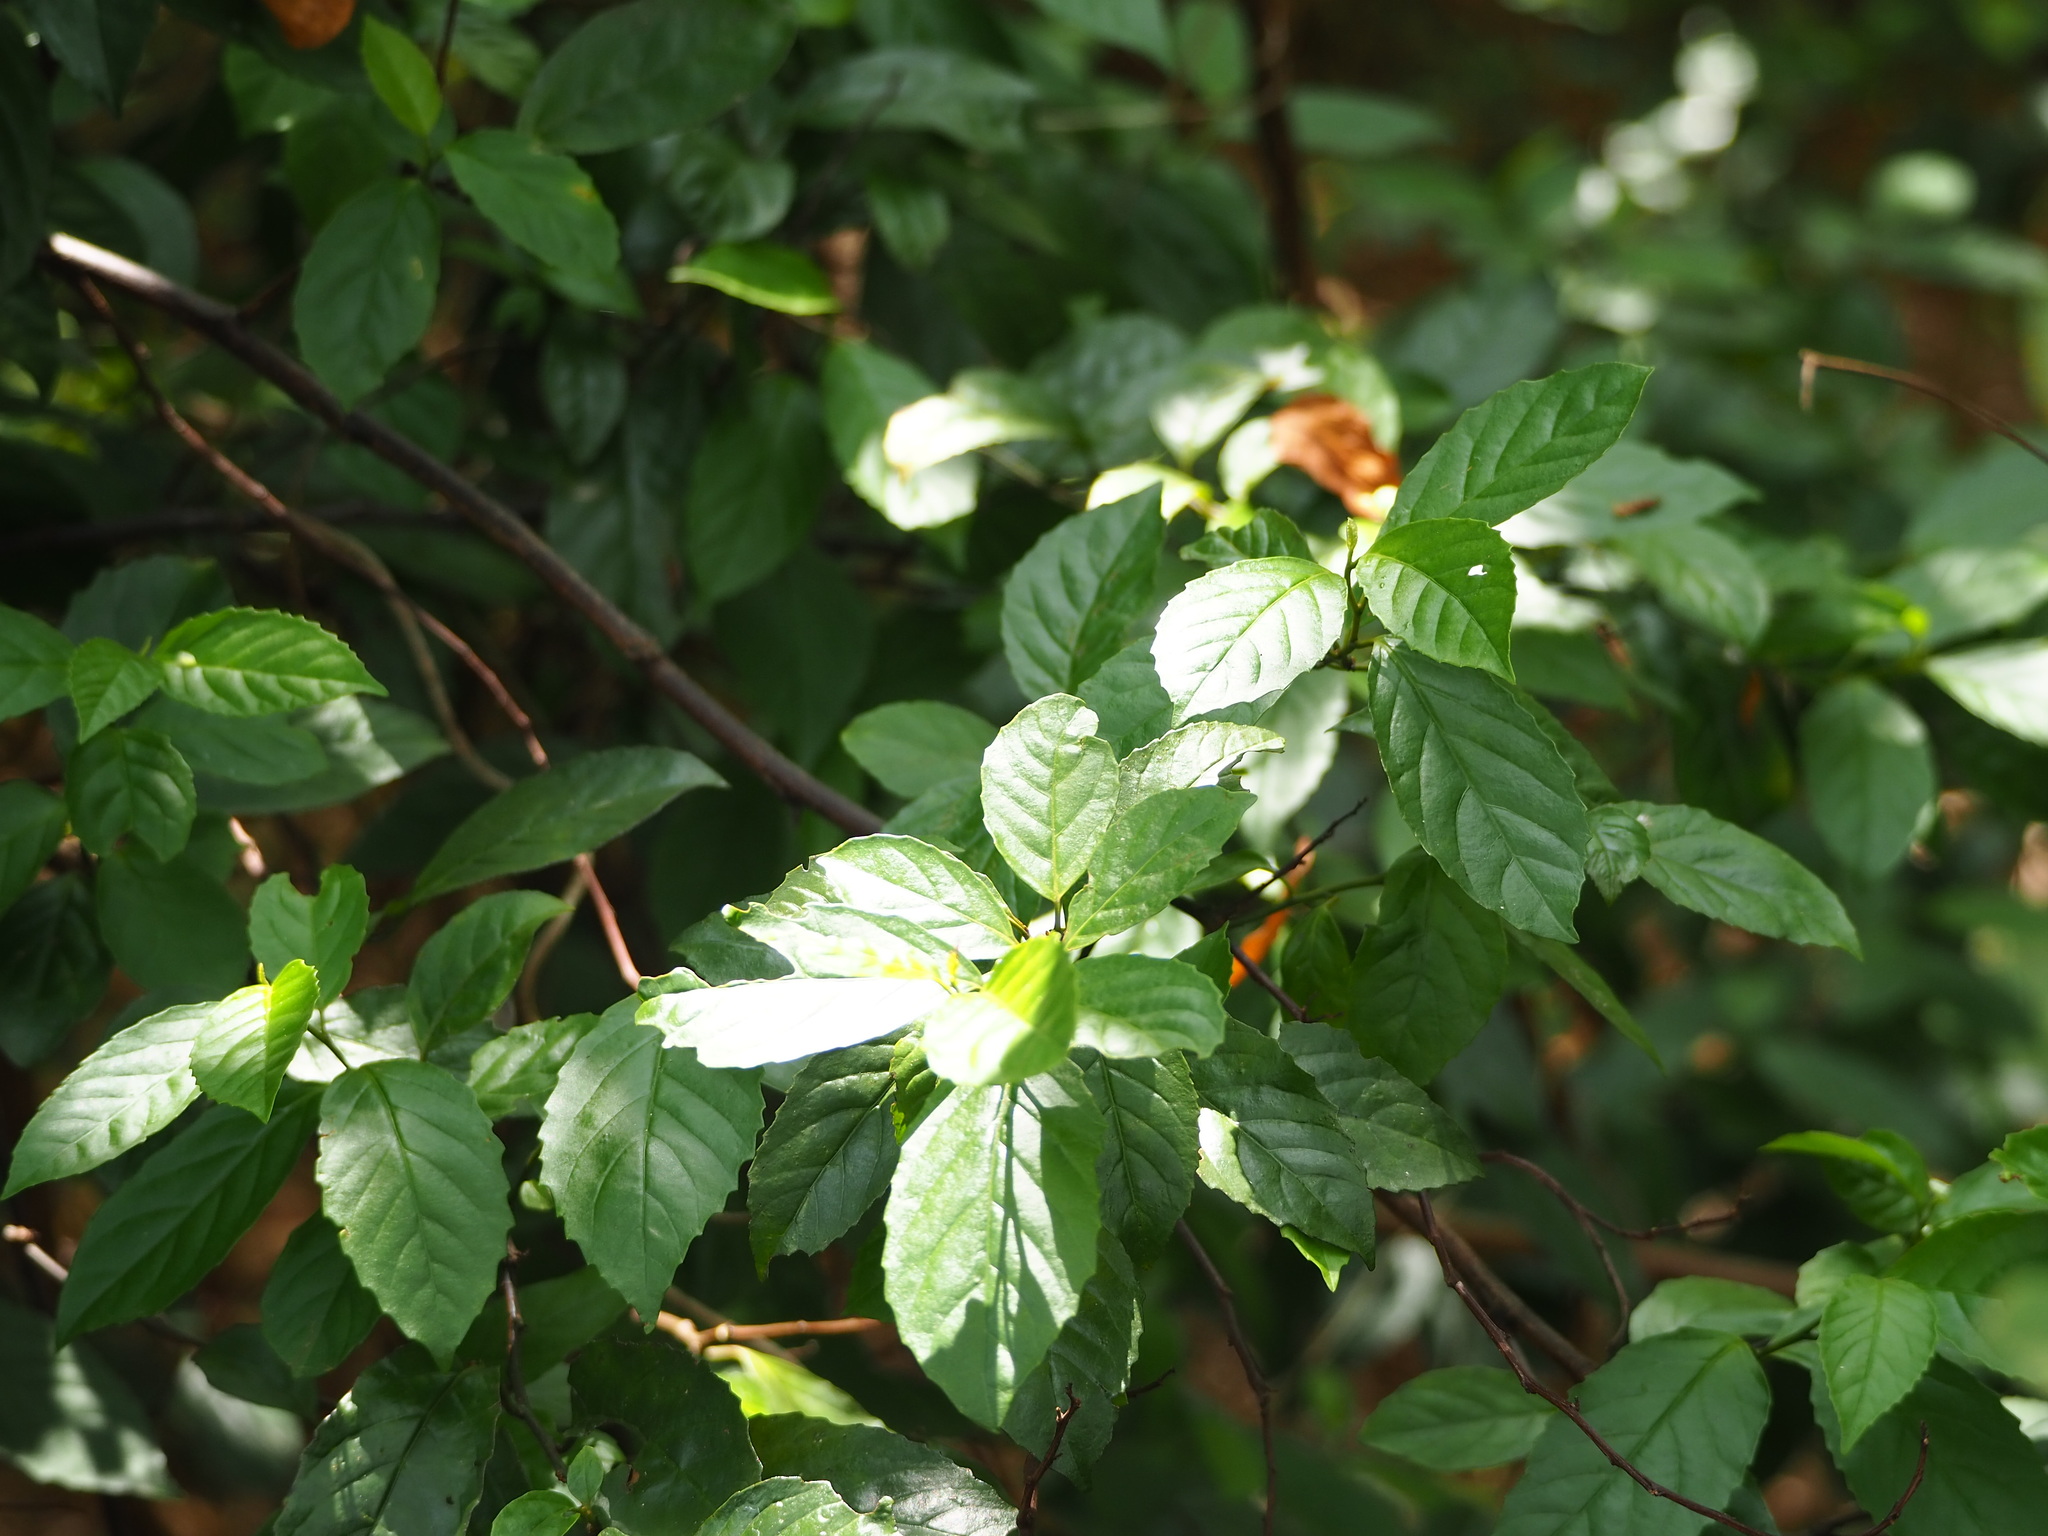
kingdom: Plantae
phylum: Tracheophyta
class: Magnoliopsida
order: Ericales
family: Primulaceae
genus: Maesa
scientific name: Maesa perlaria
